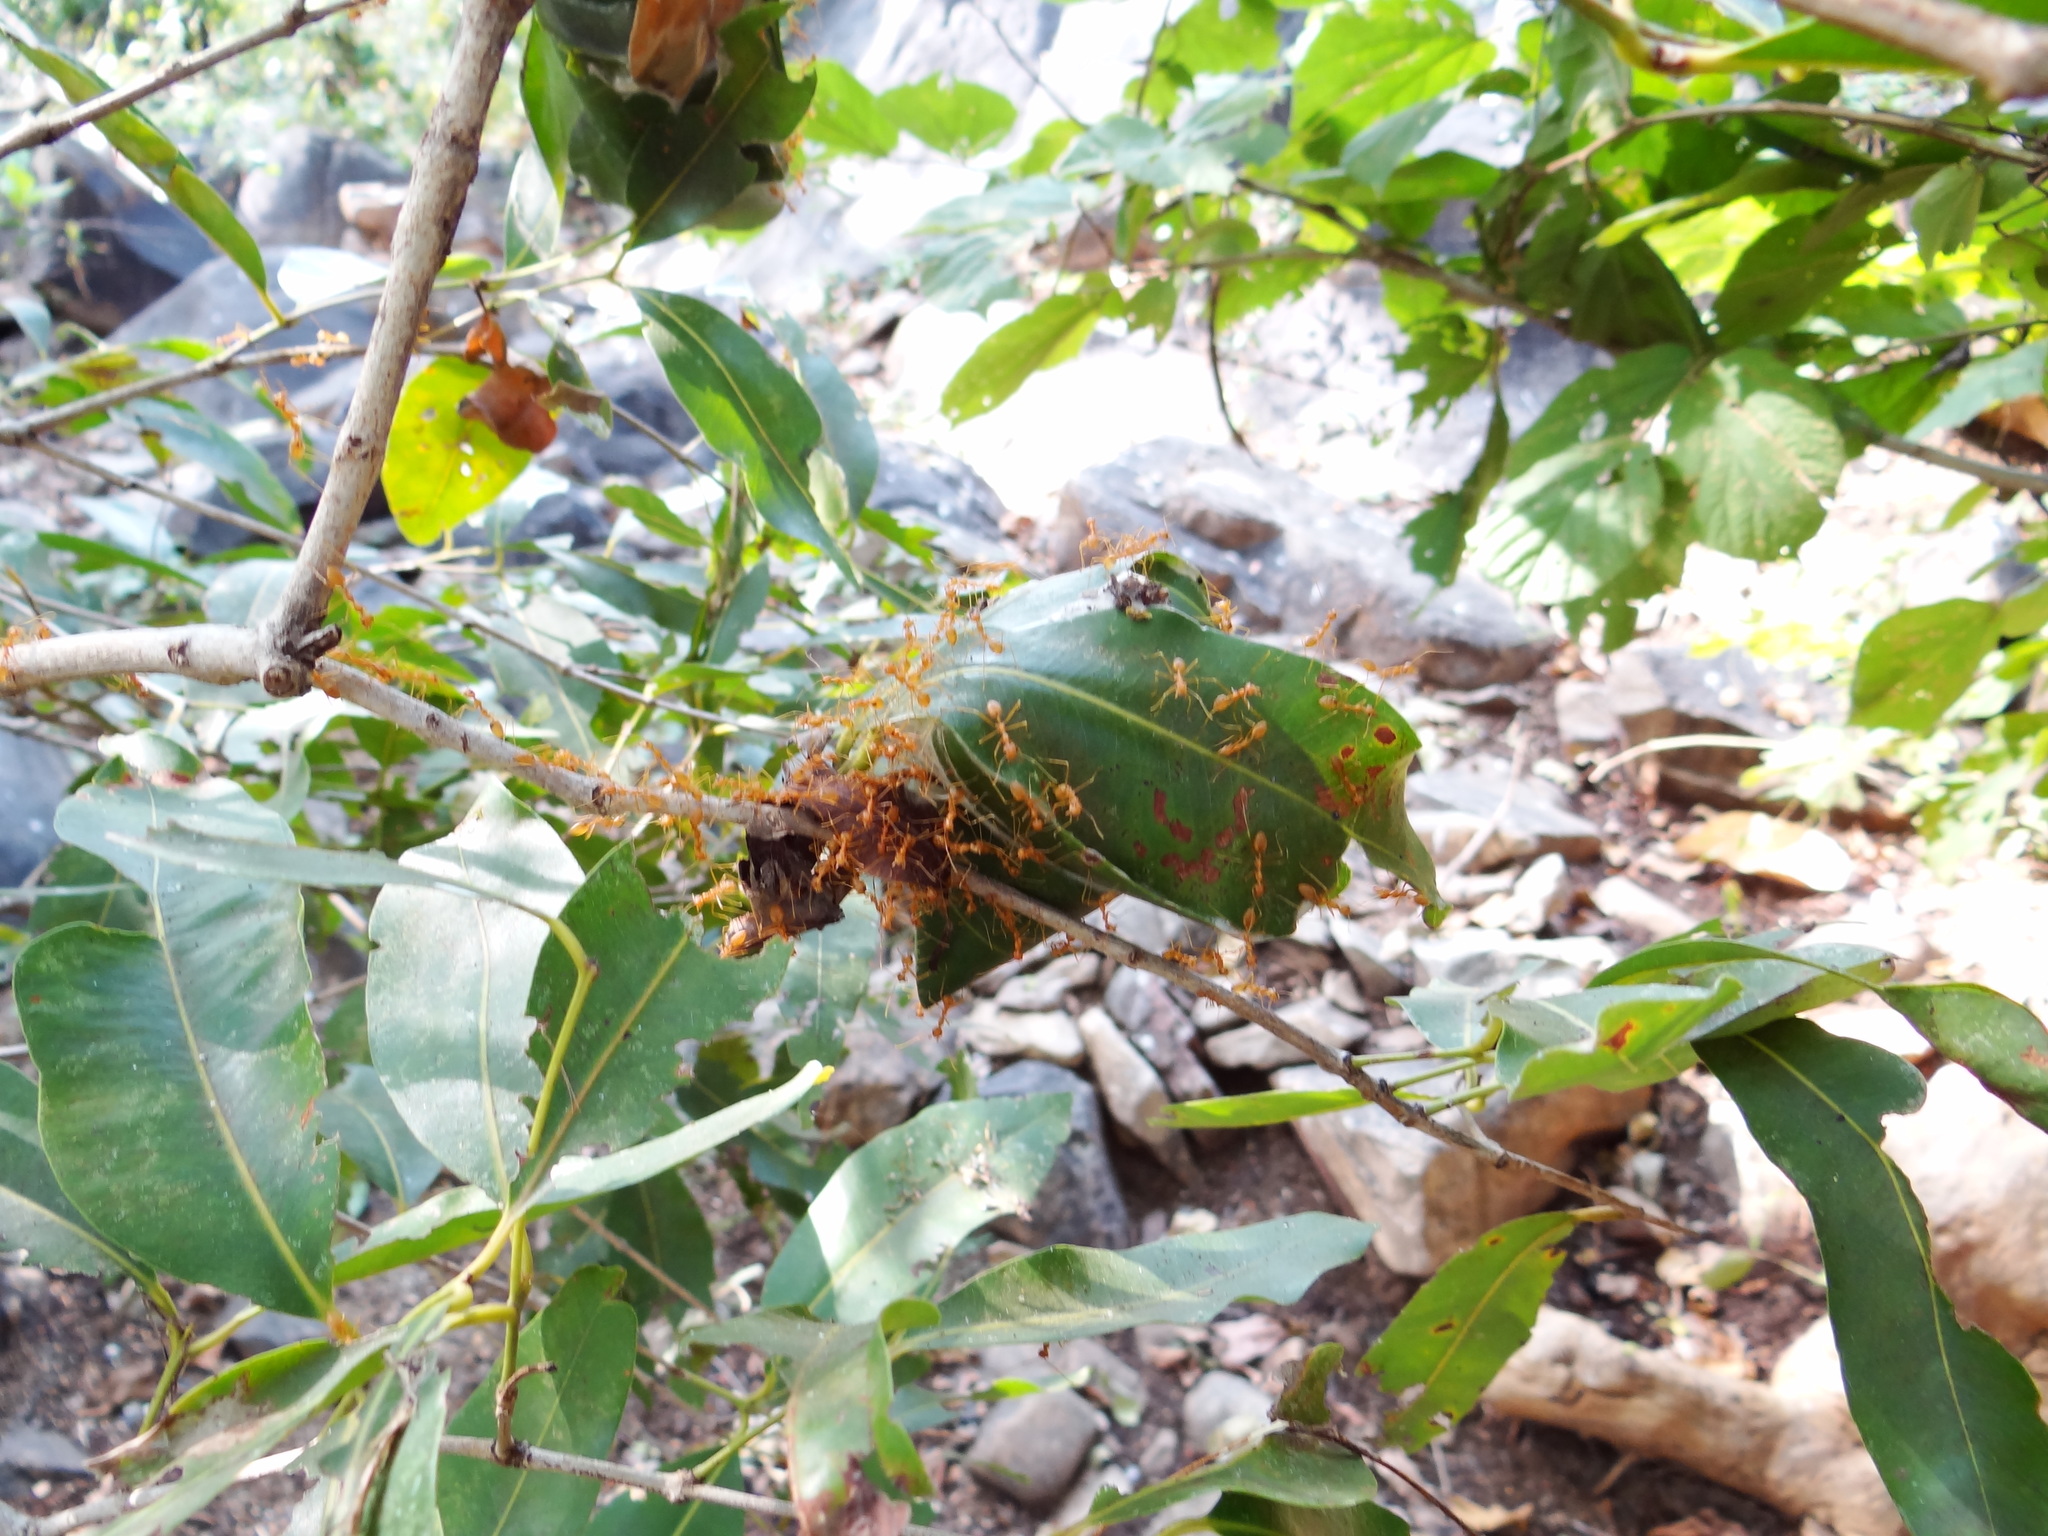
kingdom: Animalia
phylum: Arthropoda
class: Insecta
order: Hymenoptera
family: Formicidae
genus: Oecophylla
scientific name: Oecophylla smaragdina
